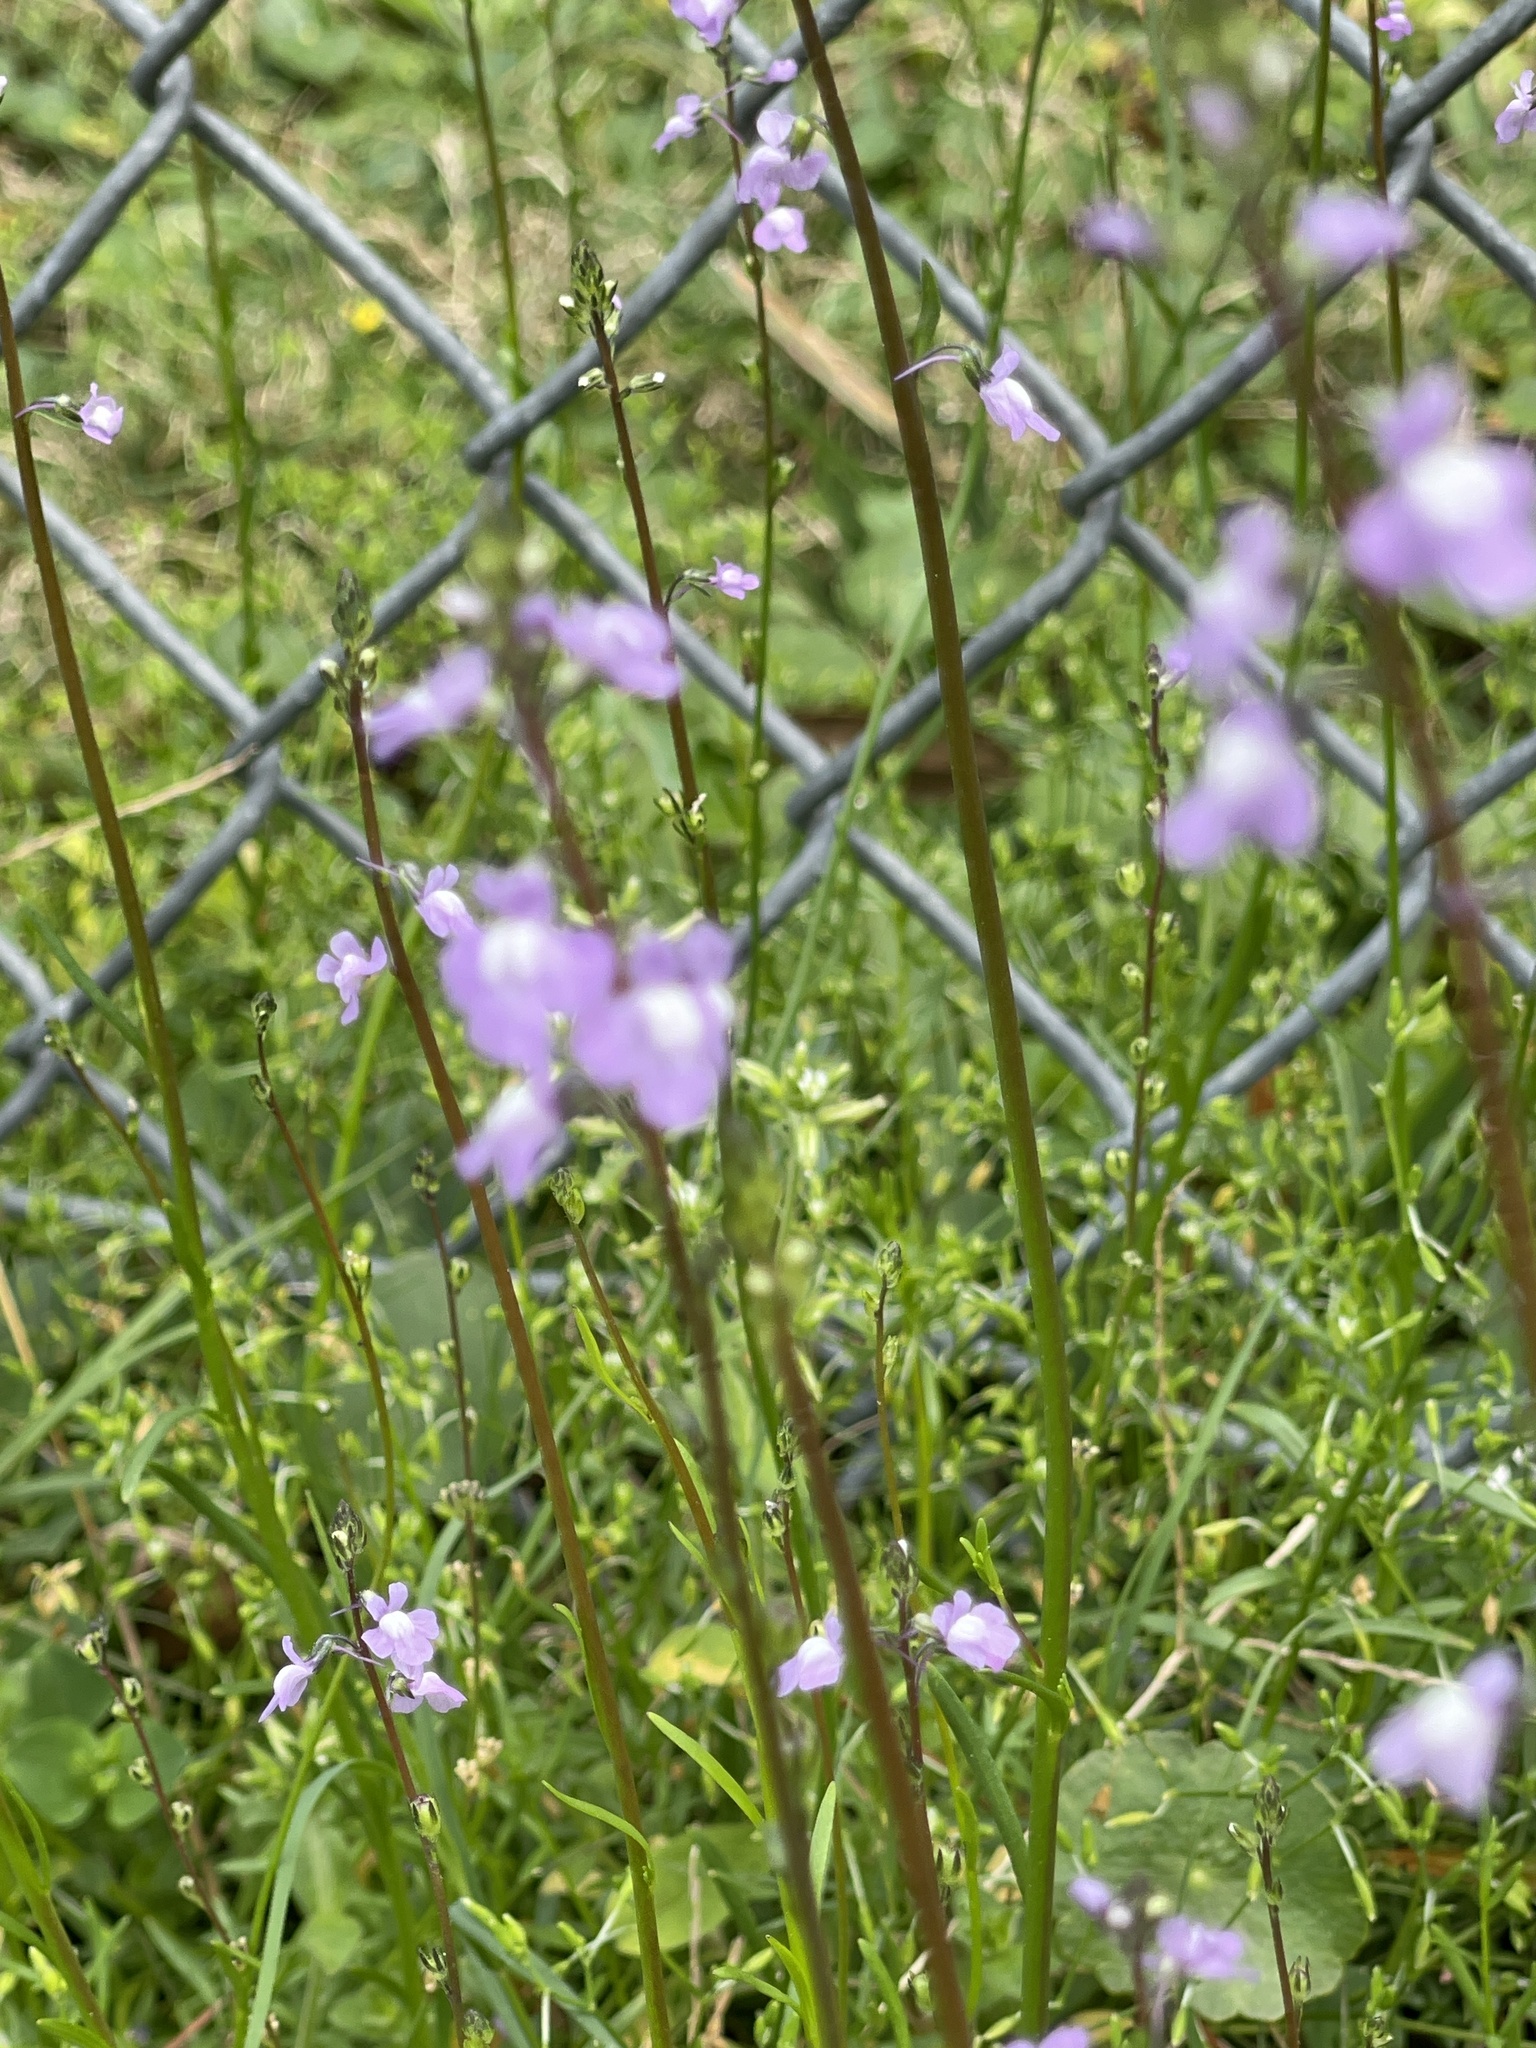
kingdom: Plantae
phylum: Tracheophyta
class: Magnoliopsida
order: Lamiales
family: Plantaginaceae
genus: Nuttallanthus
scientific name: Nuttallanthus canadensis
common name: Blue toadflax
